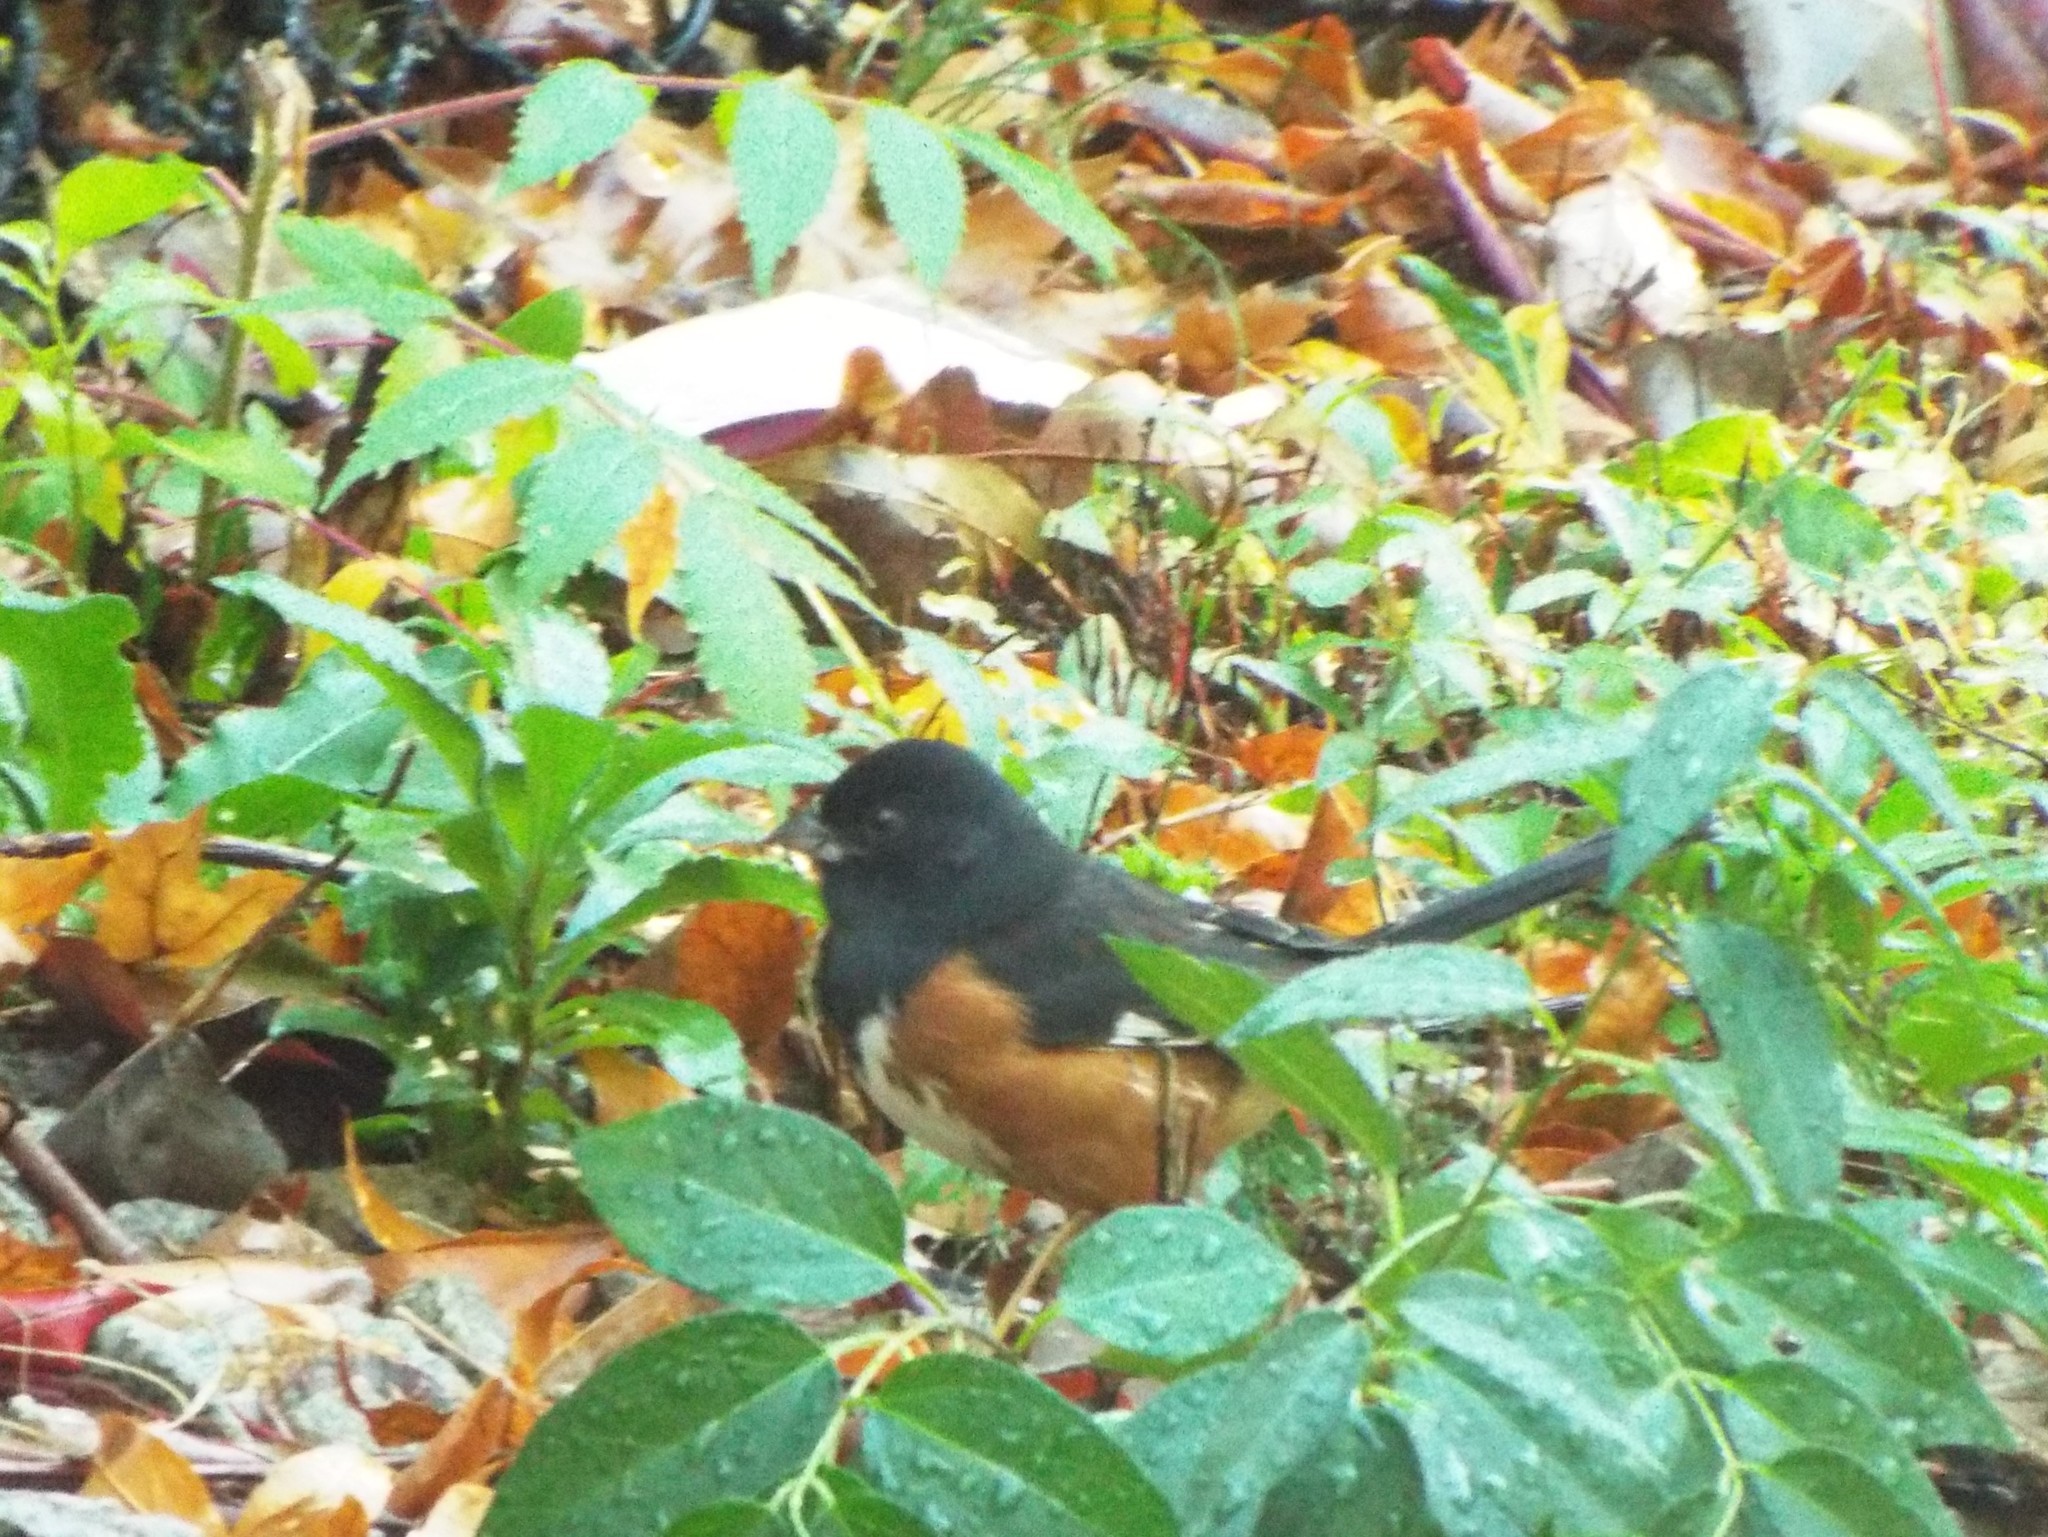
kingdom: Animalia
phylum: Chordata
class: Aves
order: Passeriformes
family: Passerellidae
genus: Pipilo
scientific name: Pipilo erythrophthalmus
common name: Eastern towhee
